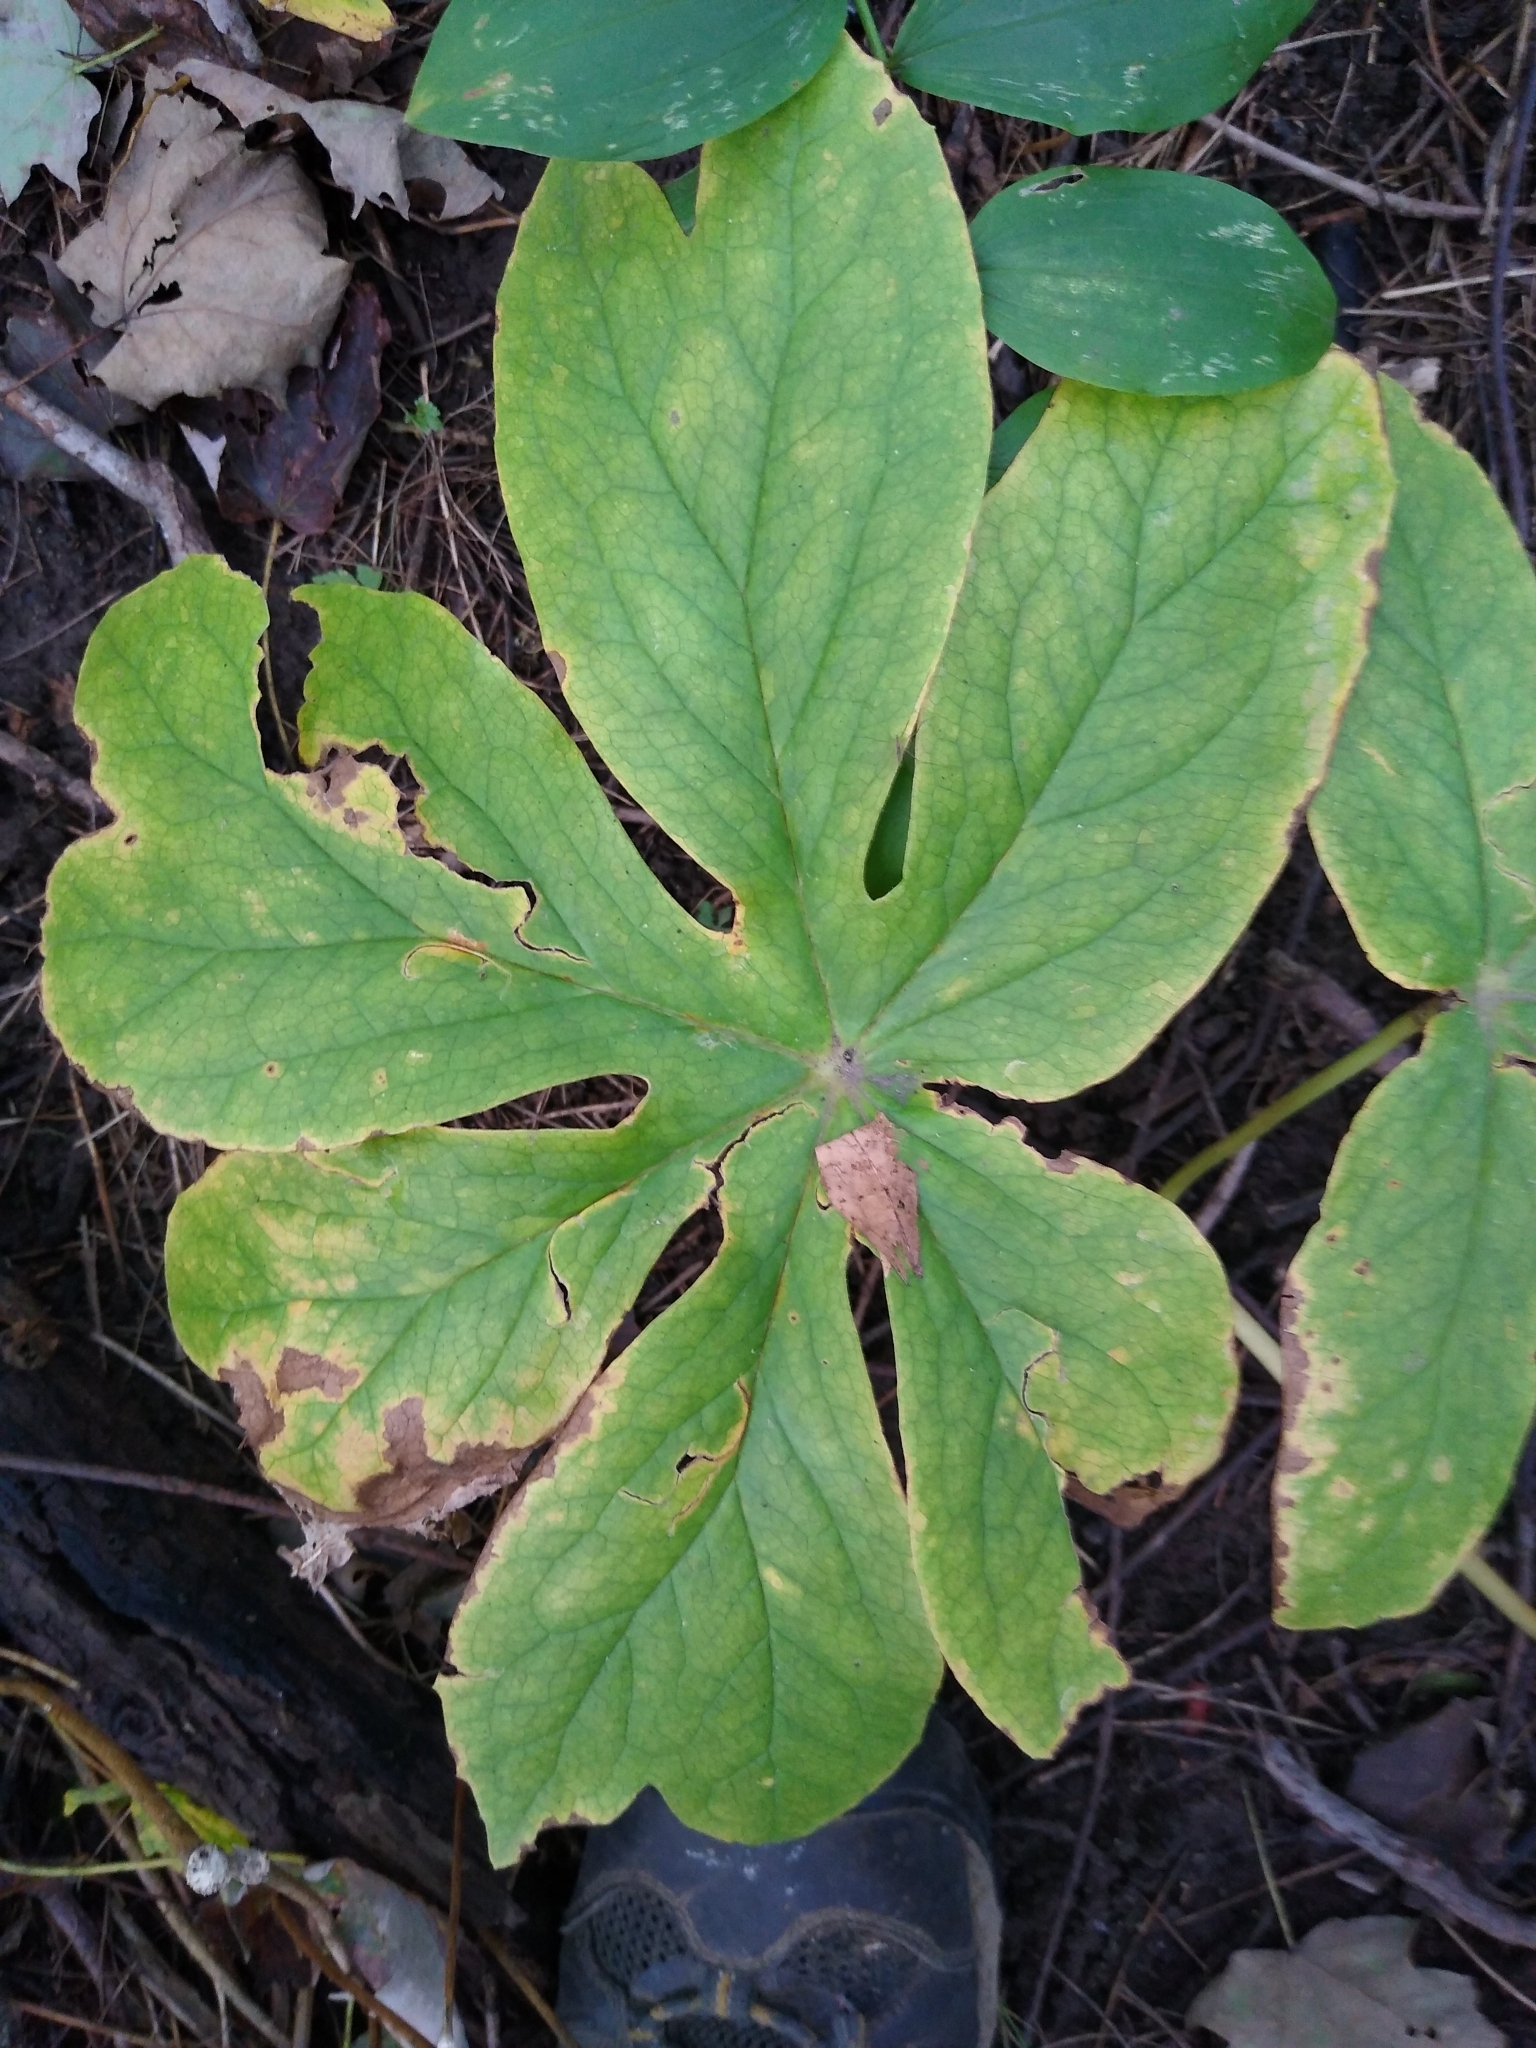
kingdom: Plantae
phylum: Tracheophyta
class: Magnoliopsida
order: Ranunculales
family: Berberidaceae
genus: Podophyllum
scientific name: Podophyllum peltatum
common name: Wild mandrake
